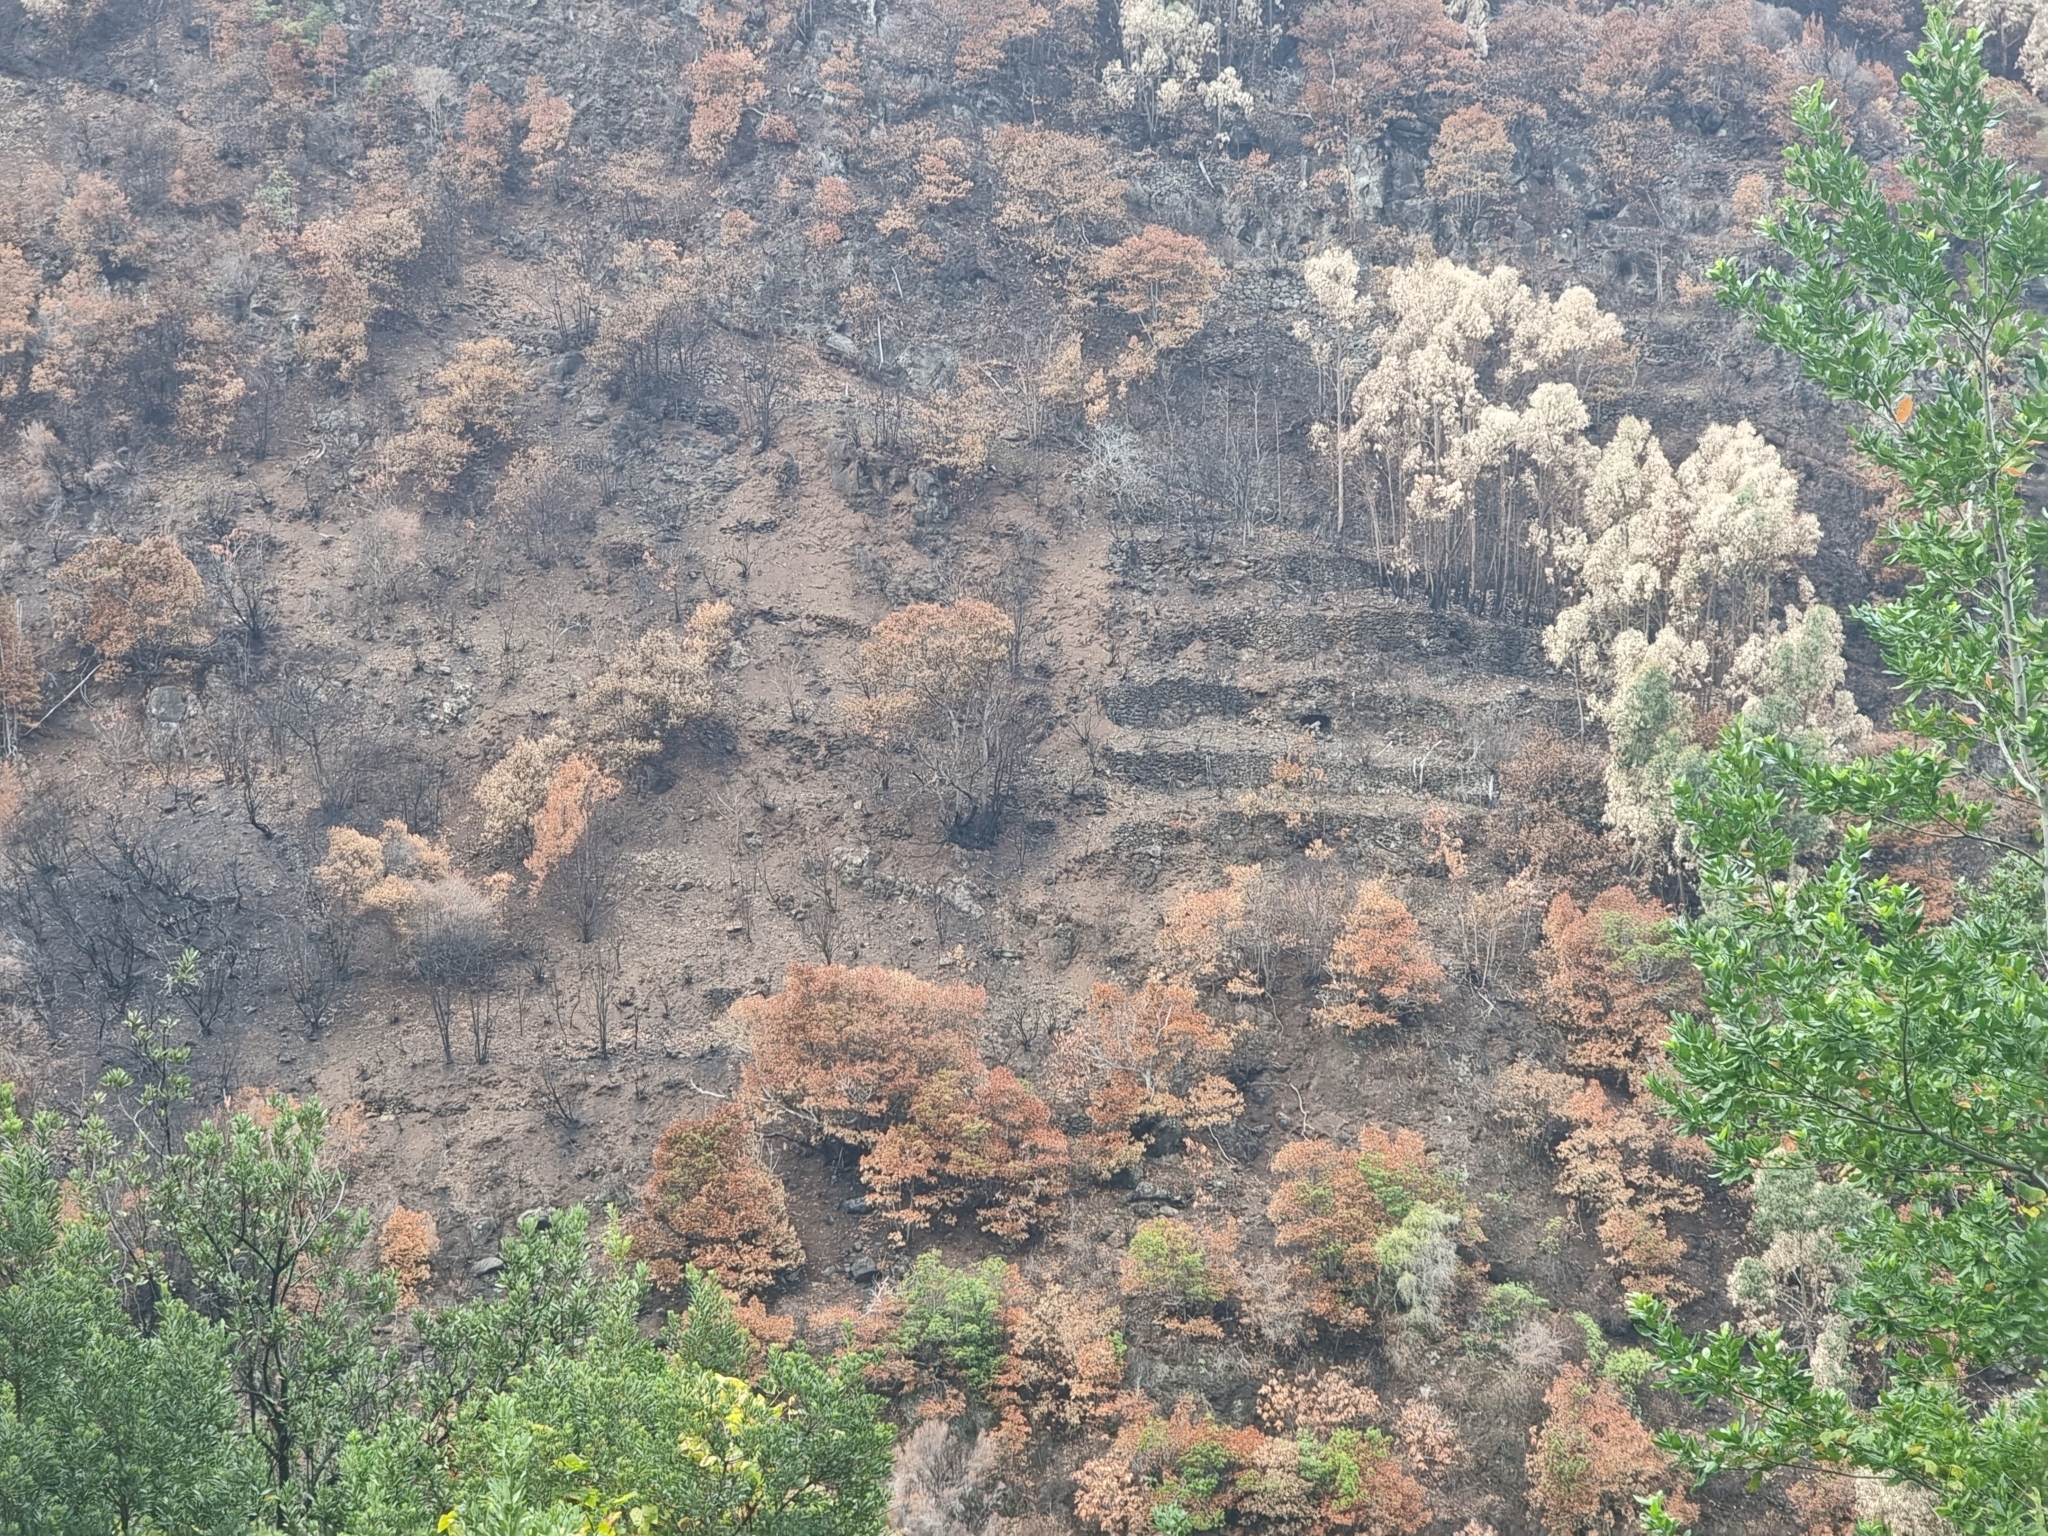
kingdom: Plantae
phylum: Tracheophyta
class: Magnoliopsida
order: Myrtales
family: Myrtaceae
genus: Eucalyptus
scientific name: Eucalyptus globulus
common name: Southern blue-gum
